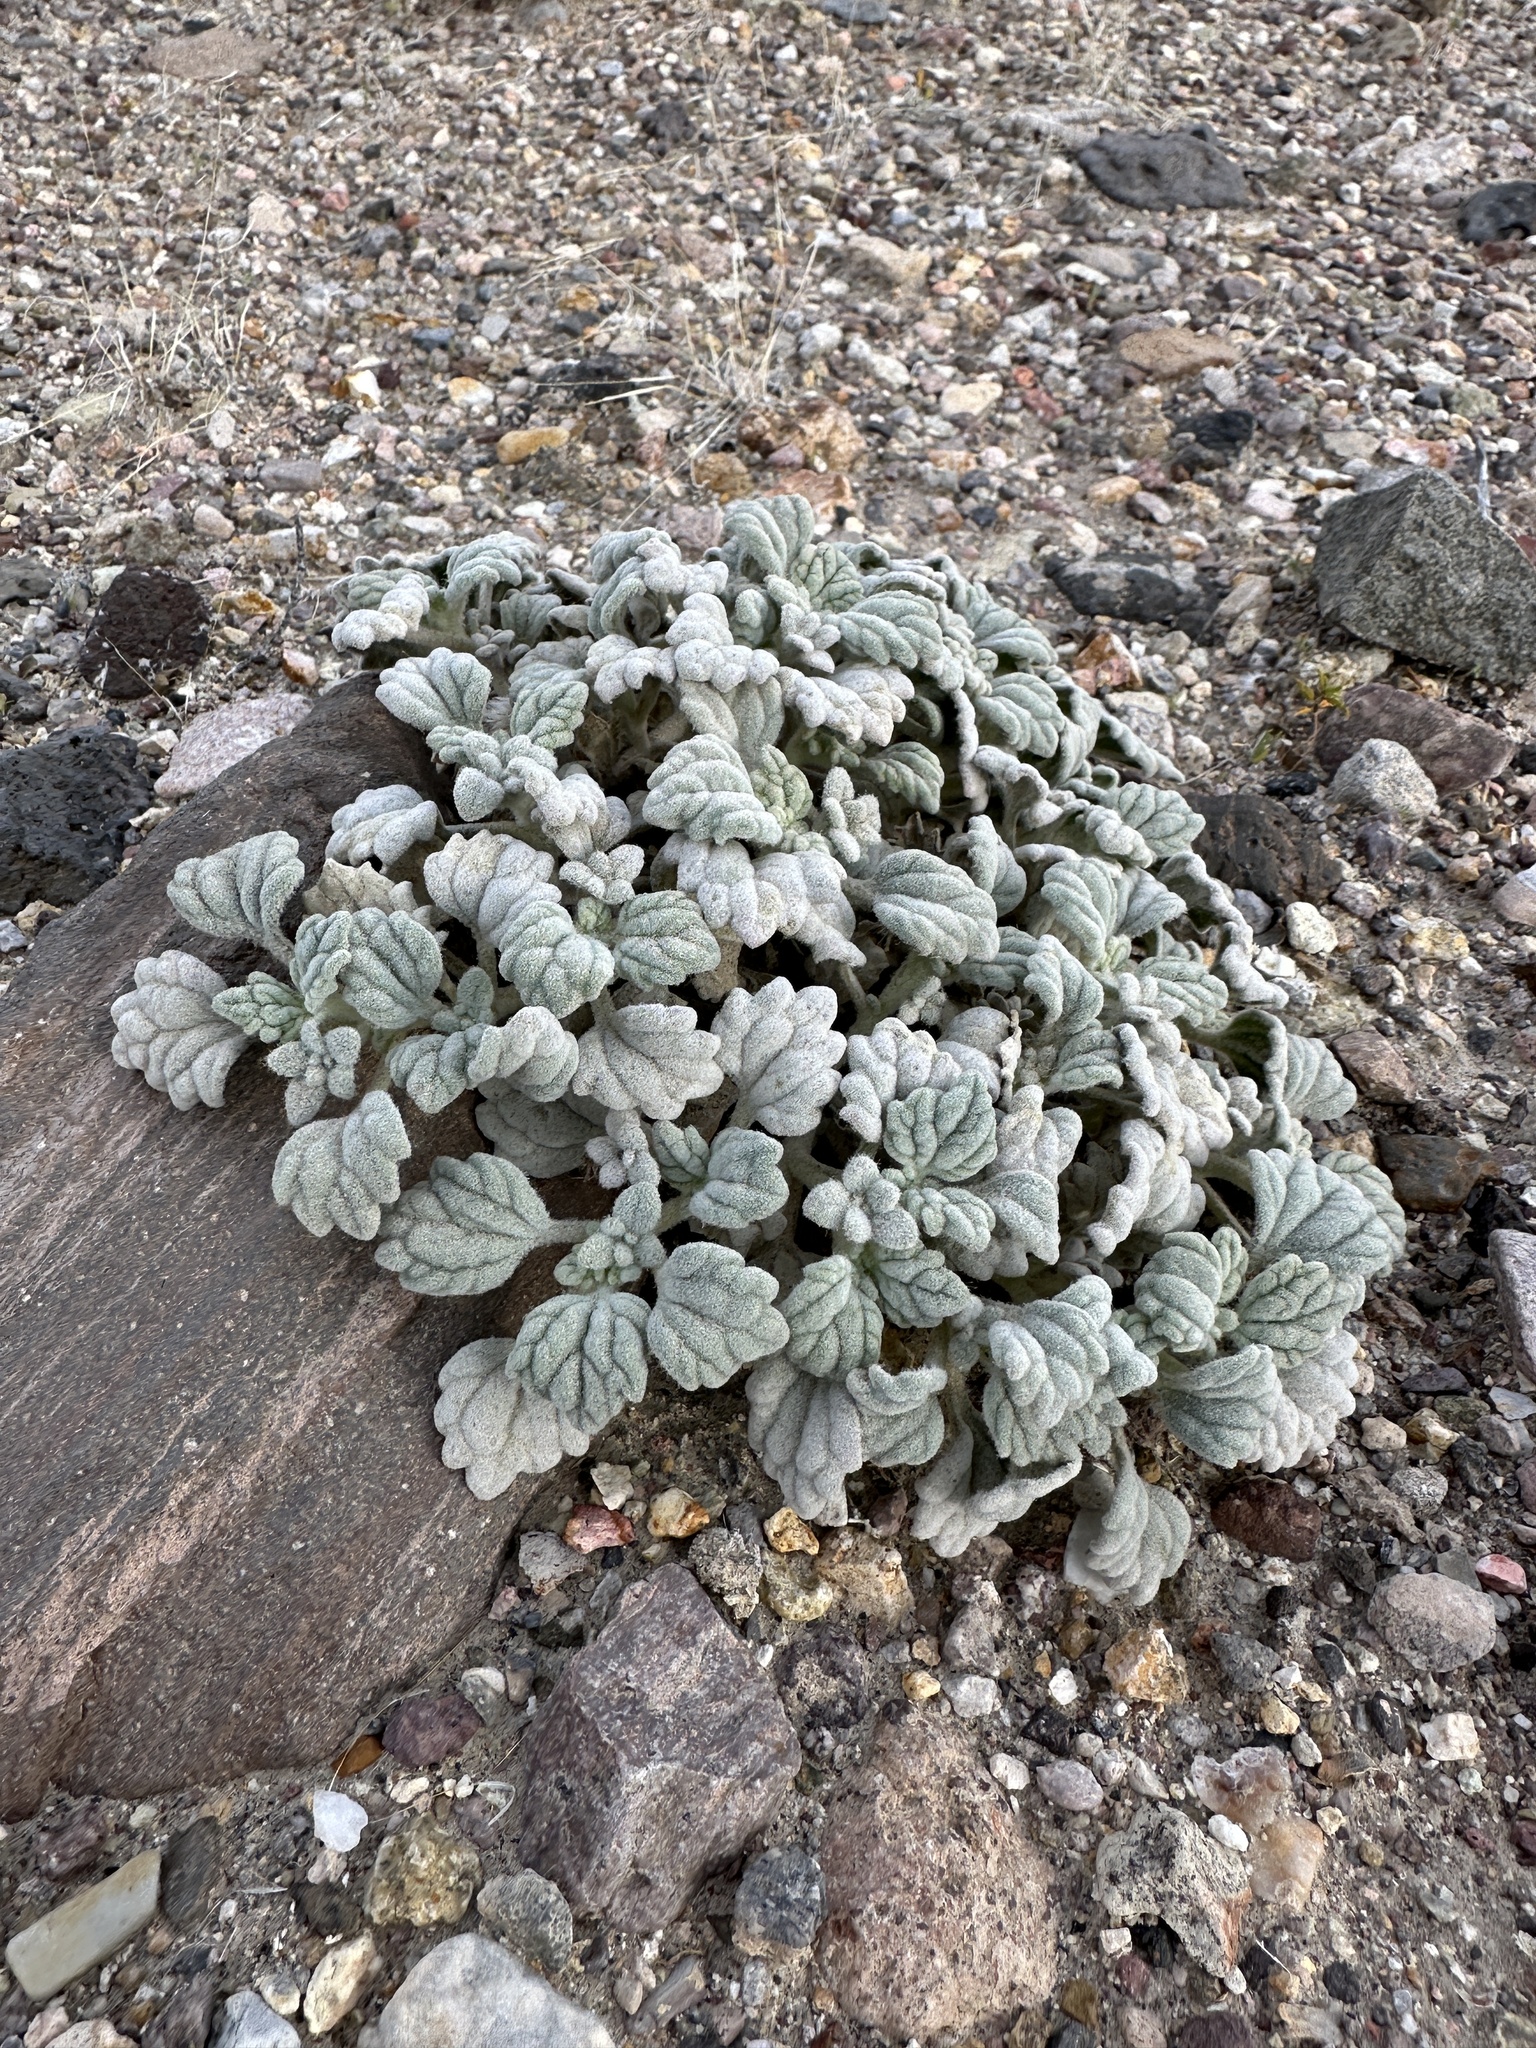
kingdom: Plantae
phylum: Tracheophyta
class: Magnoliopsida
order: Asterales
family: Asteraceae
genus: Psathyrotes
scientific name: Psathyrotes ramosissima
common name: Turtleback
